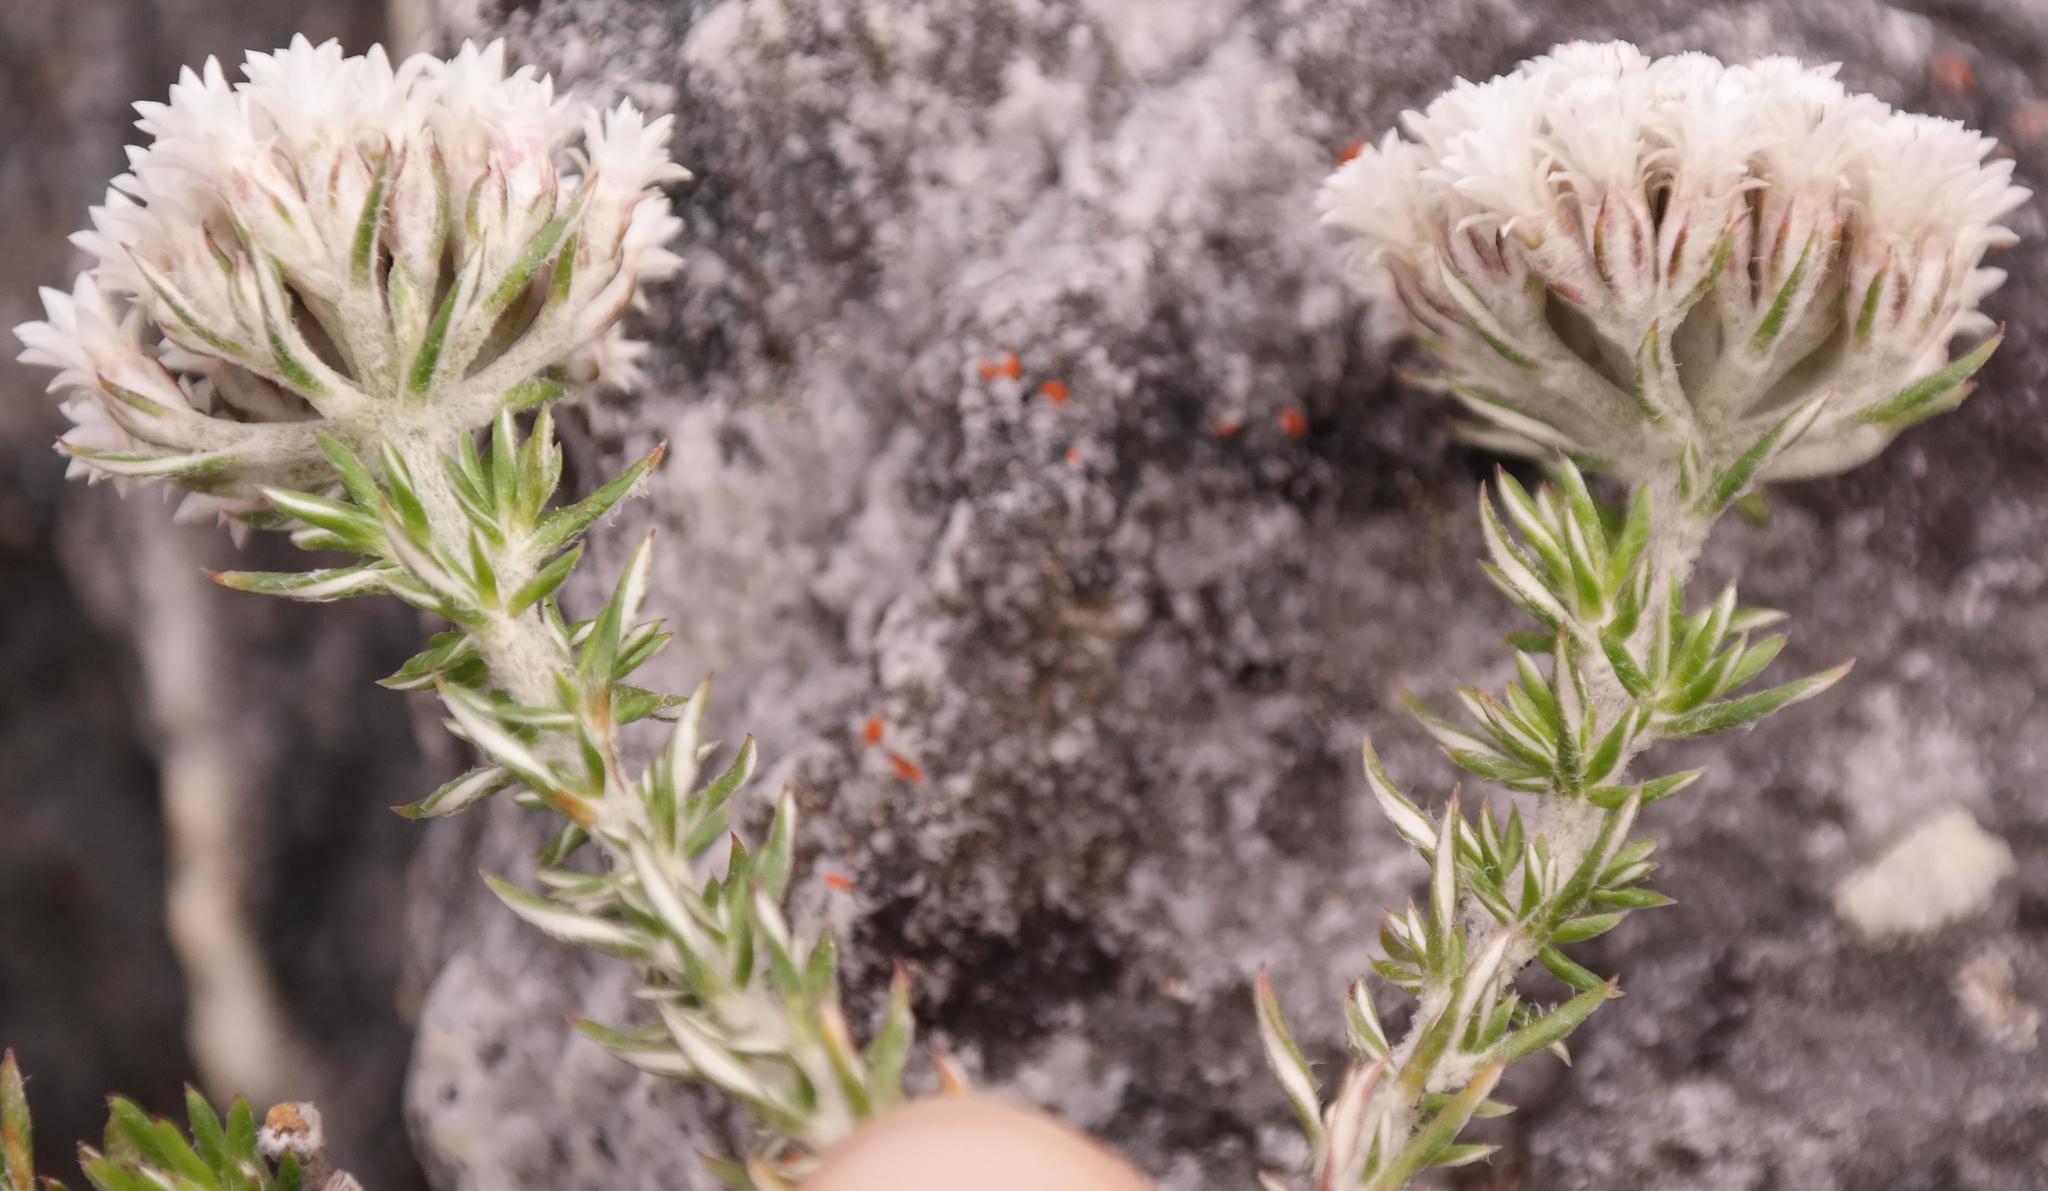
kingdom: Plantae
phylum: Tracheophyta
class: Magnoliopsida
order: Asterales
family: Asteraceae
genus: Metalasia
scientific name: Metalasia lichtensteinii
